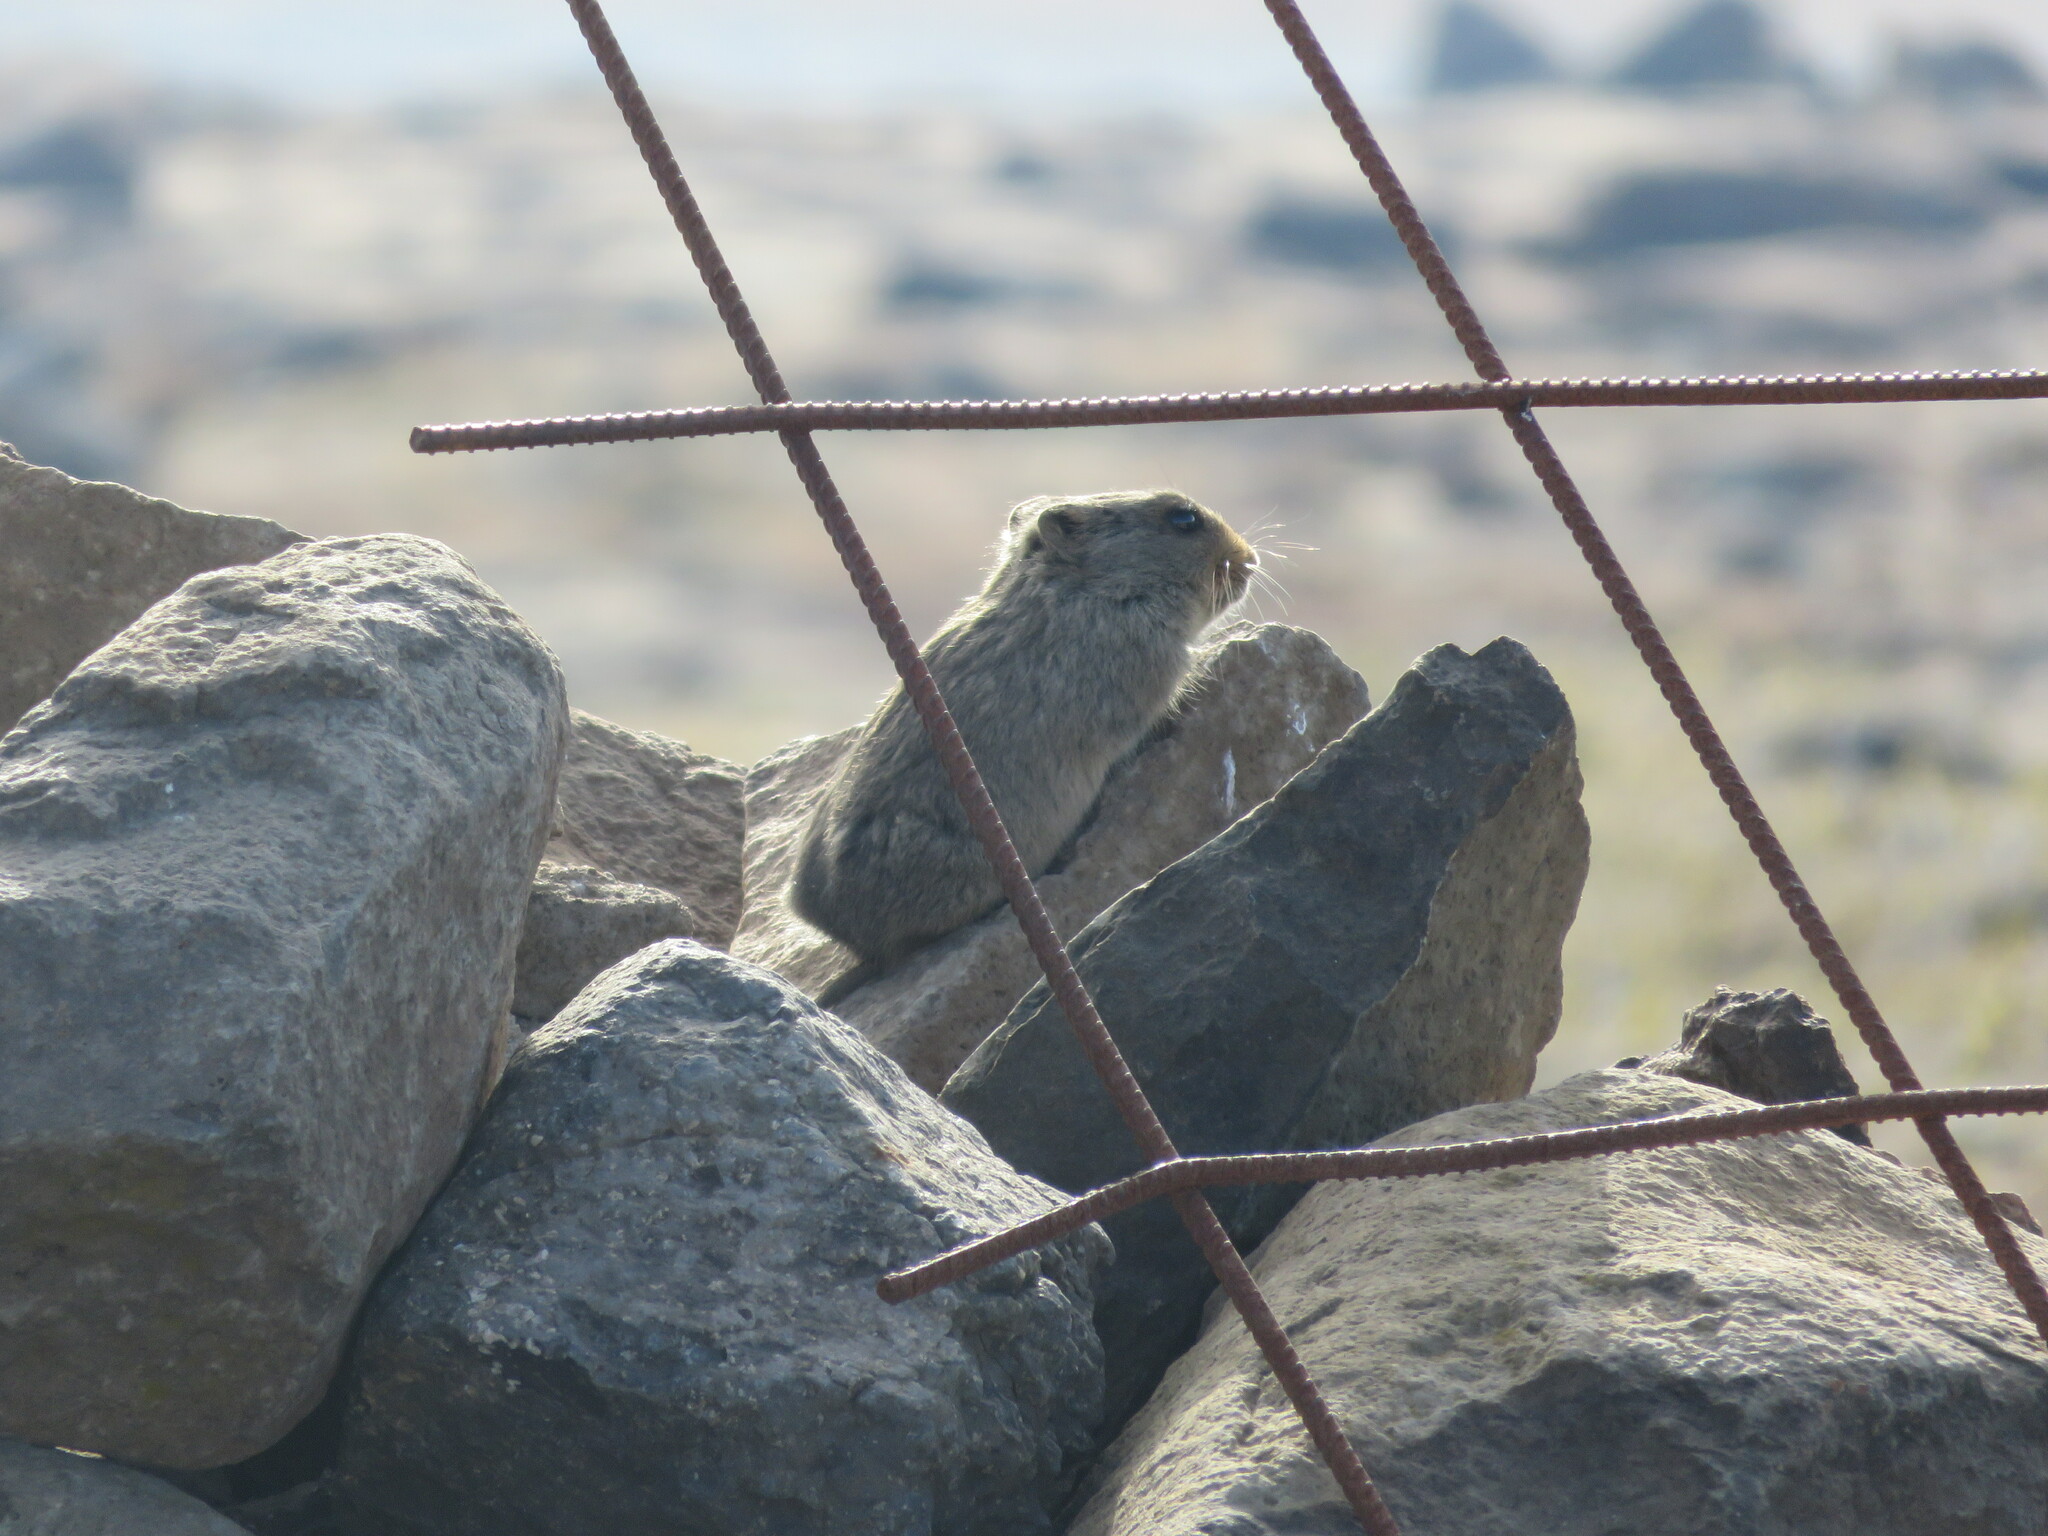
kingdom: Animalia
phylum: Chordata
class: Mammalia
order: Rodentia
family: Muridae
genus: Myotomys
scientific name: Myotomys sloggetti
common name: Rock karroo rat
